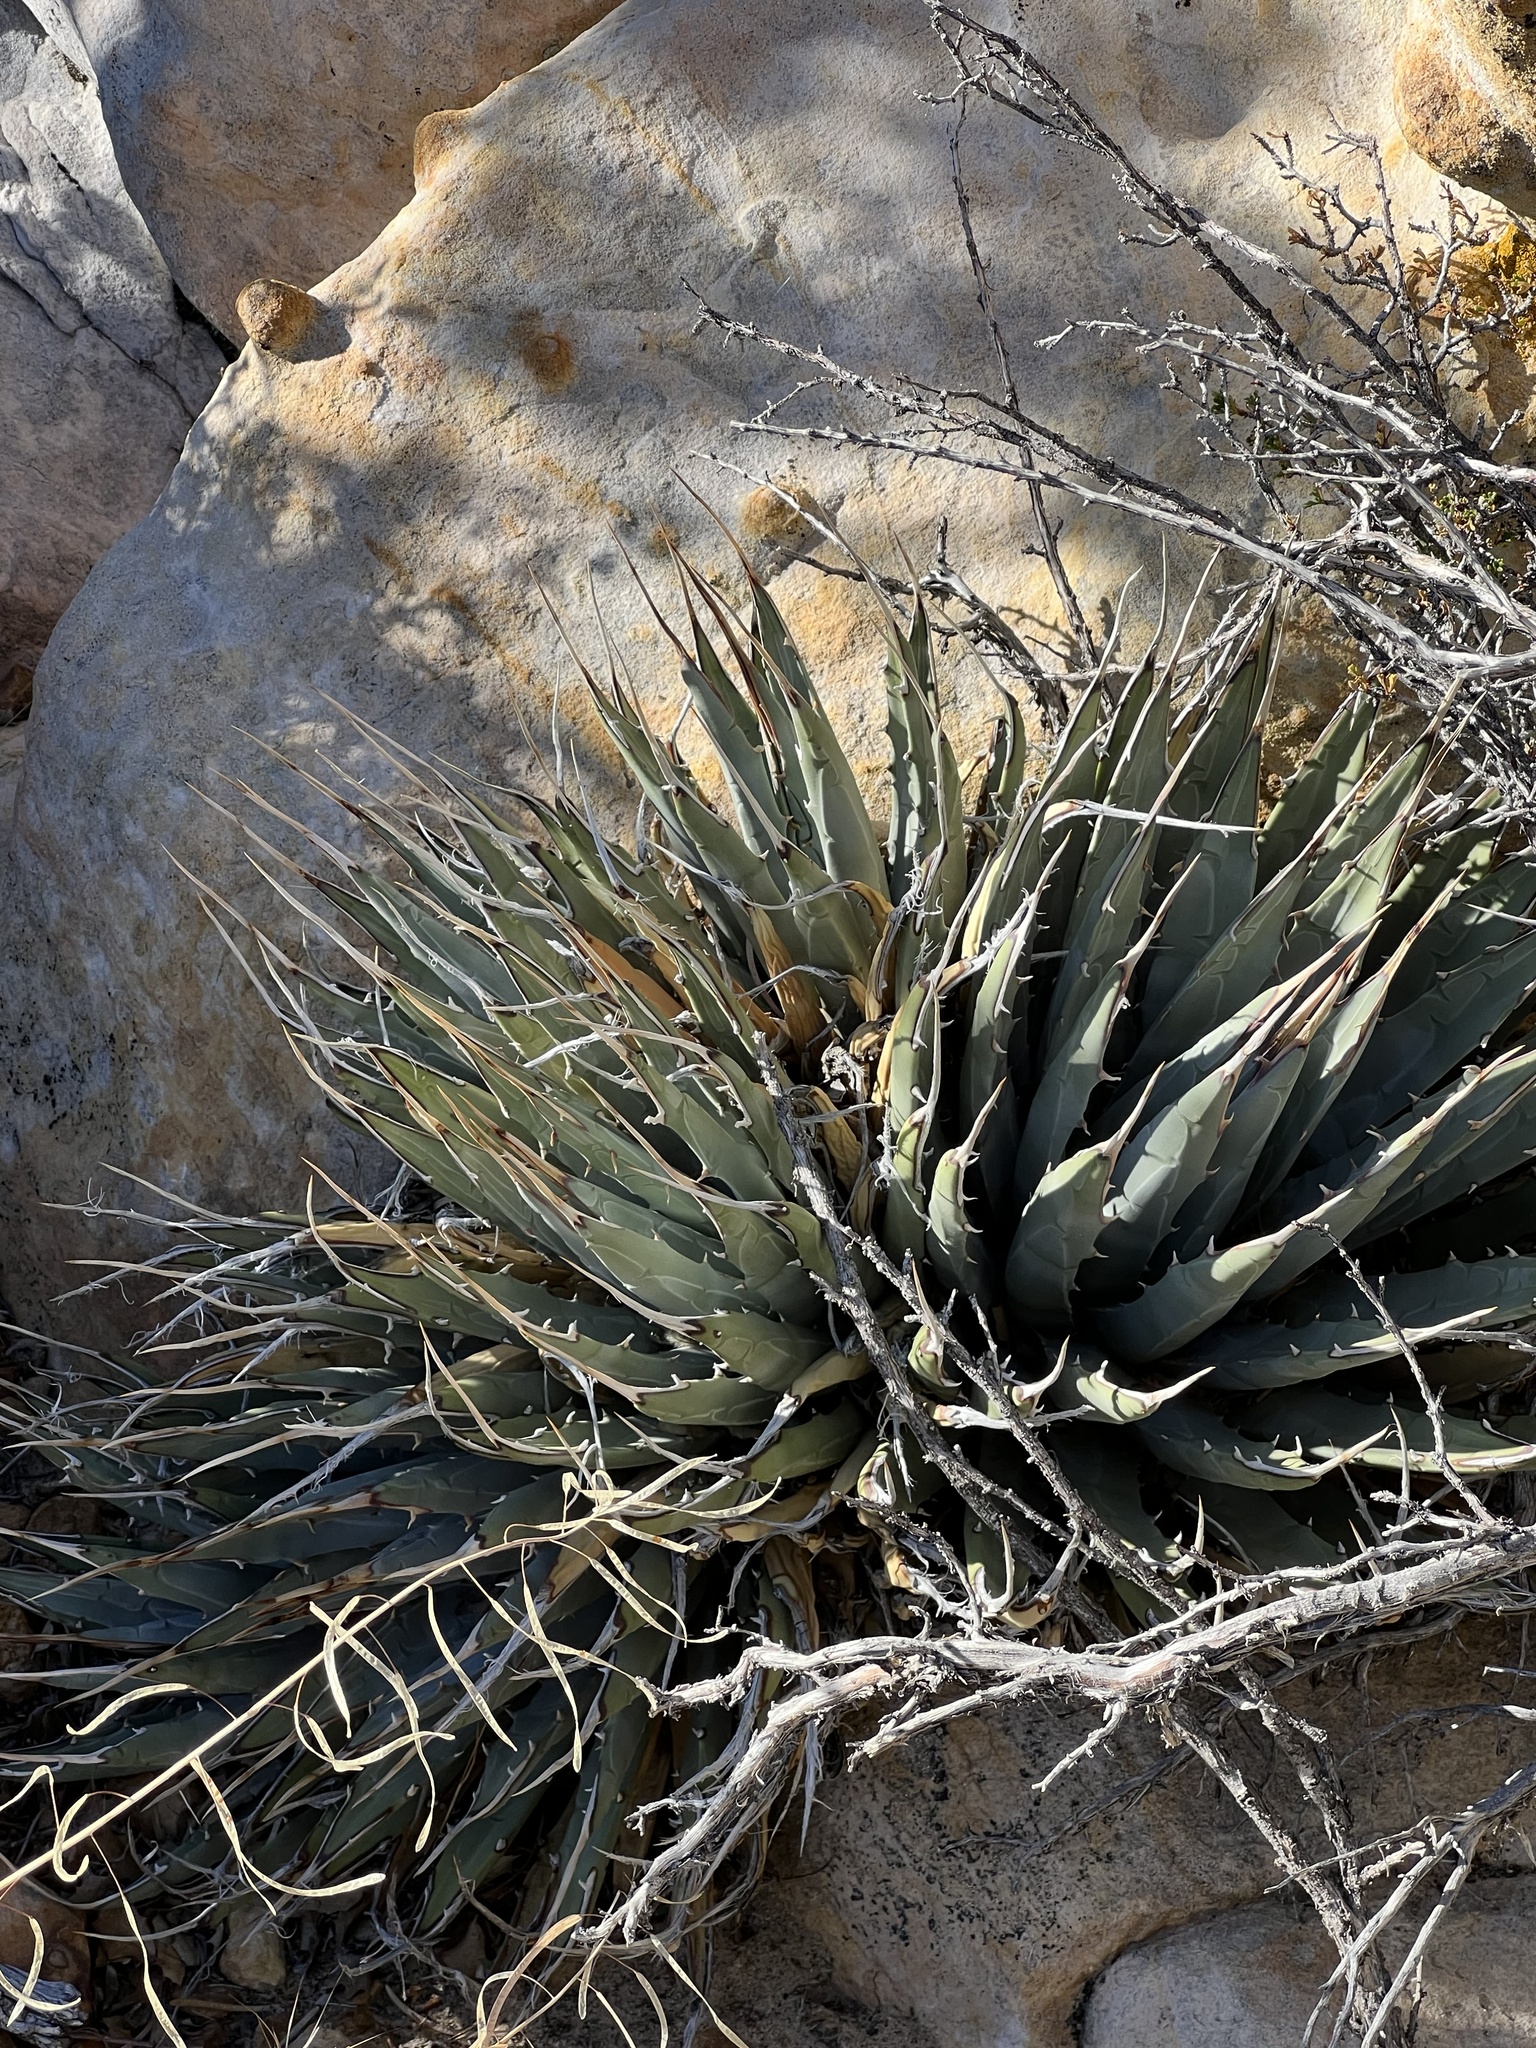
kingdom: Plantae
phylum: Tracheophyta
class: Liliopsida
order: Asparagales
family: Asparagaceae
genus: Agave
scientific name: Agave utahensis
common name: Utah agave
